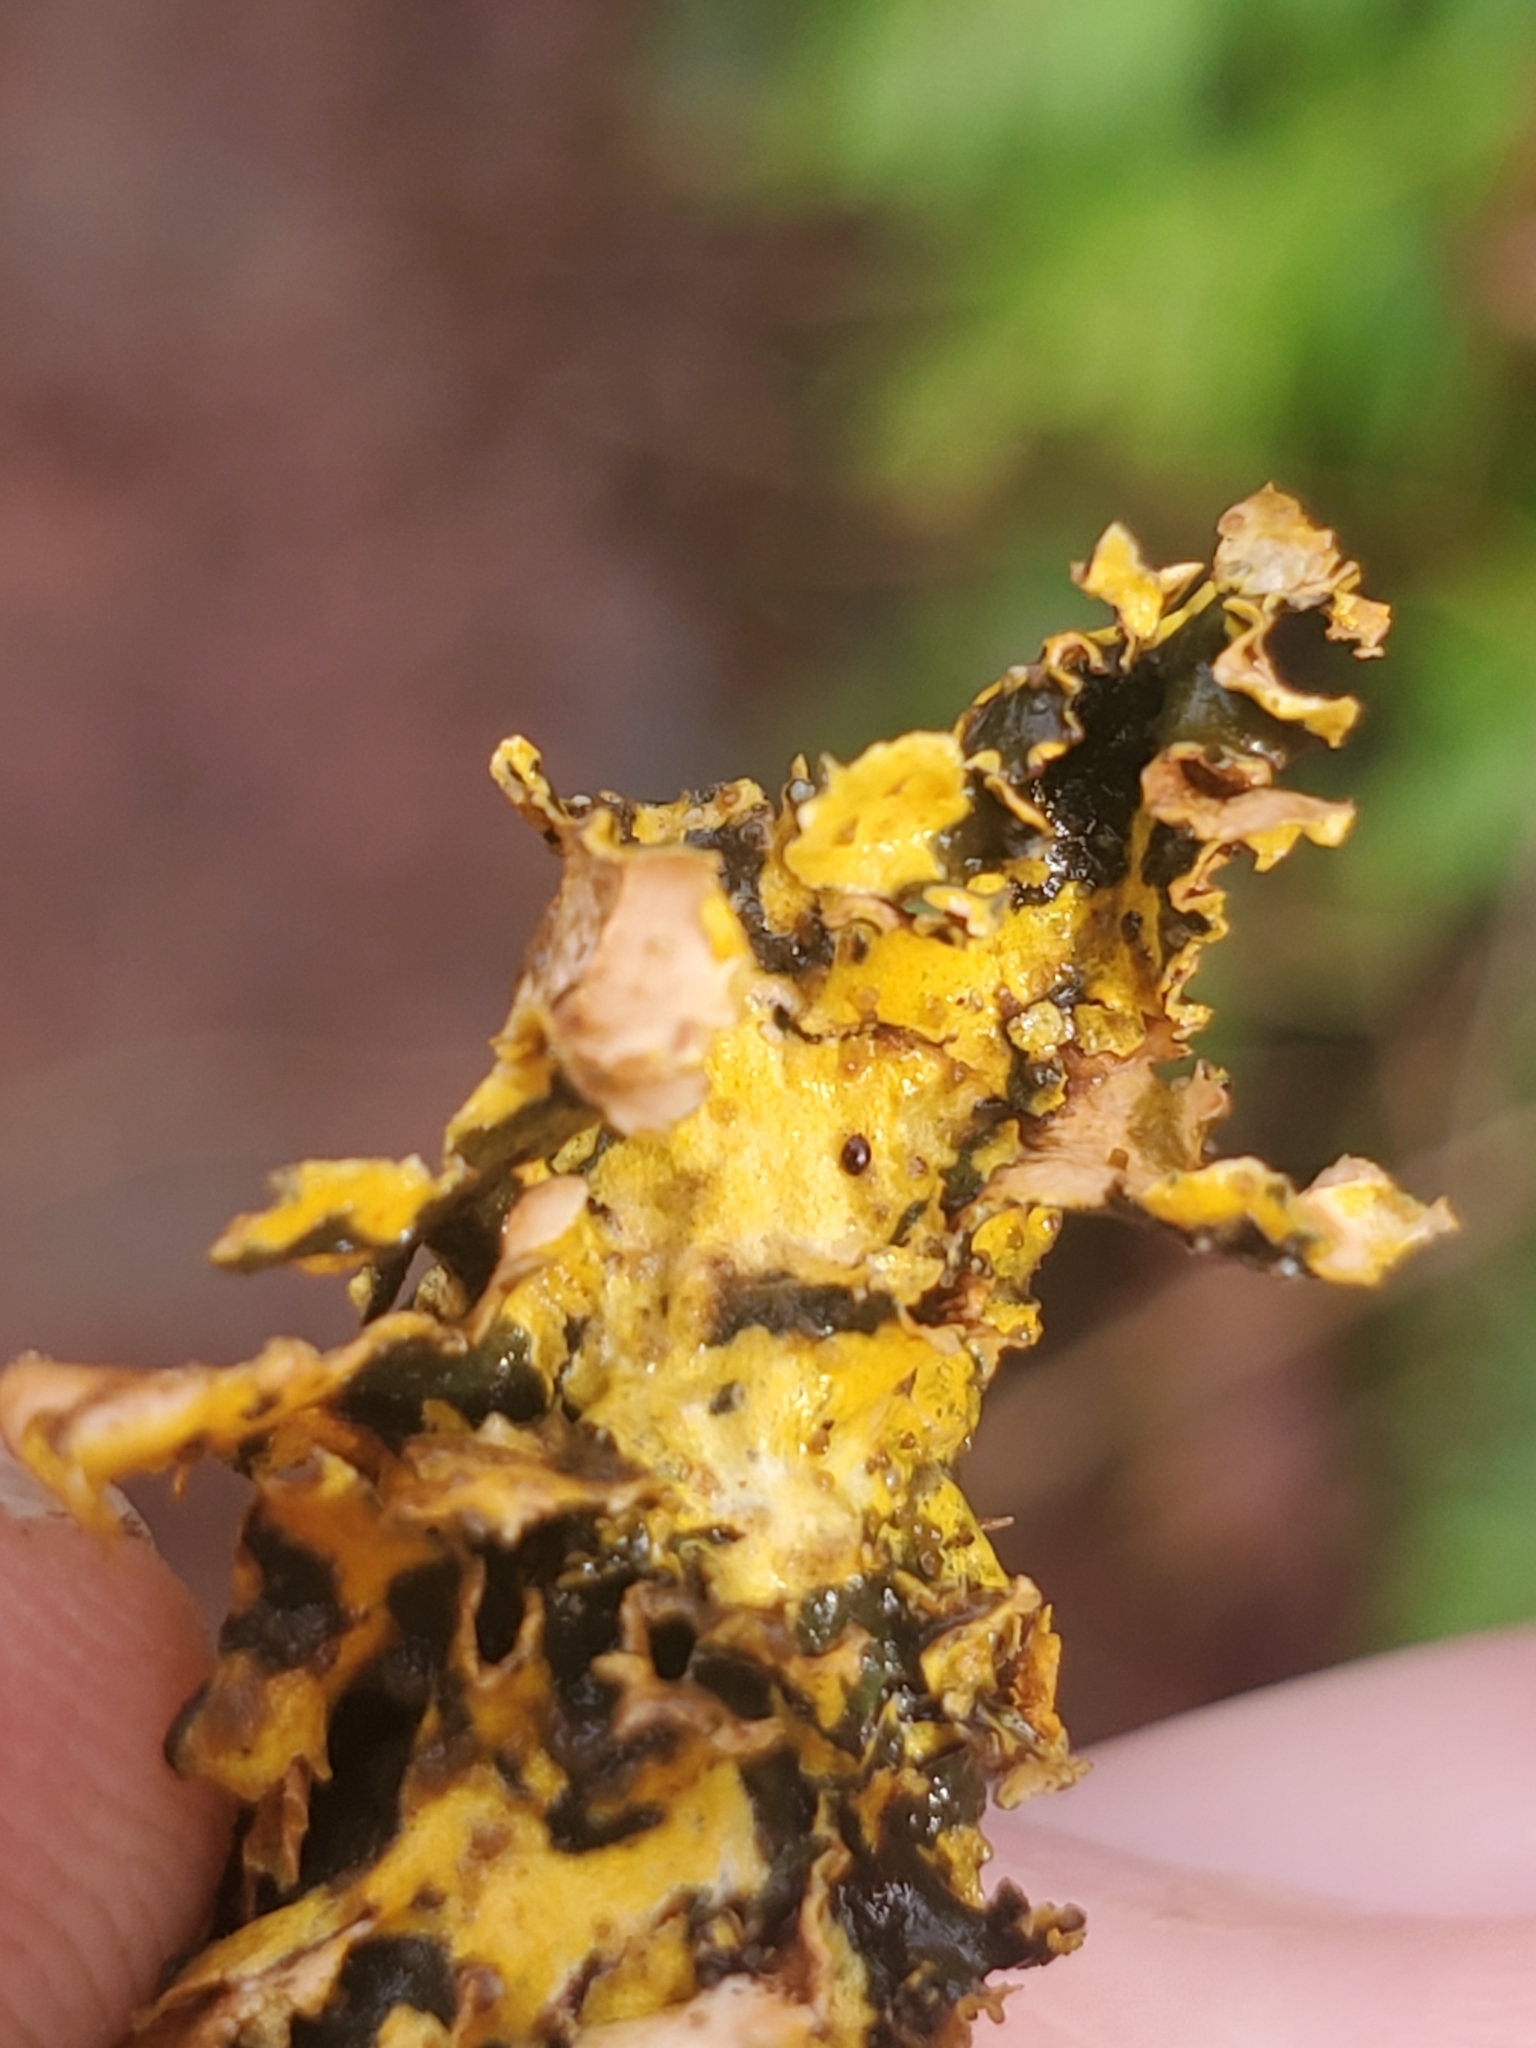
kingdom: Fungi
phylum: Ascomycota
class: Lecanoromycetes
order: Peltigerales
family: Nephromataceae
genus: Nephroma
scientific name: Nephroma laevigatum
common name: Mustard kidney lichen
